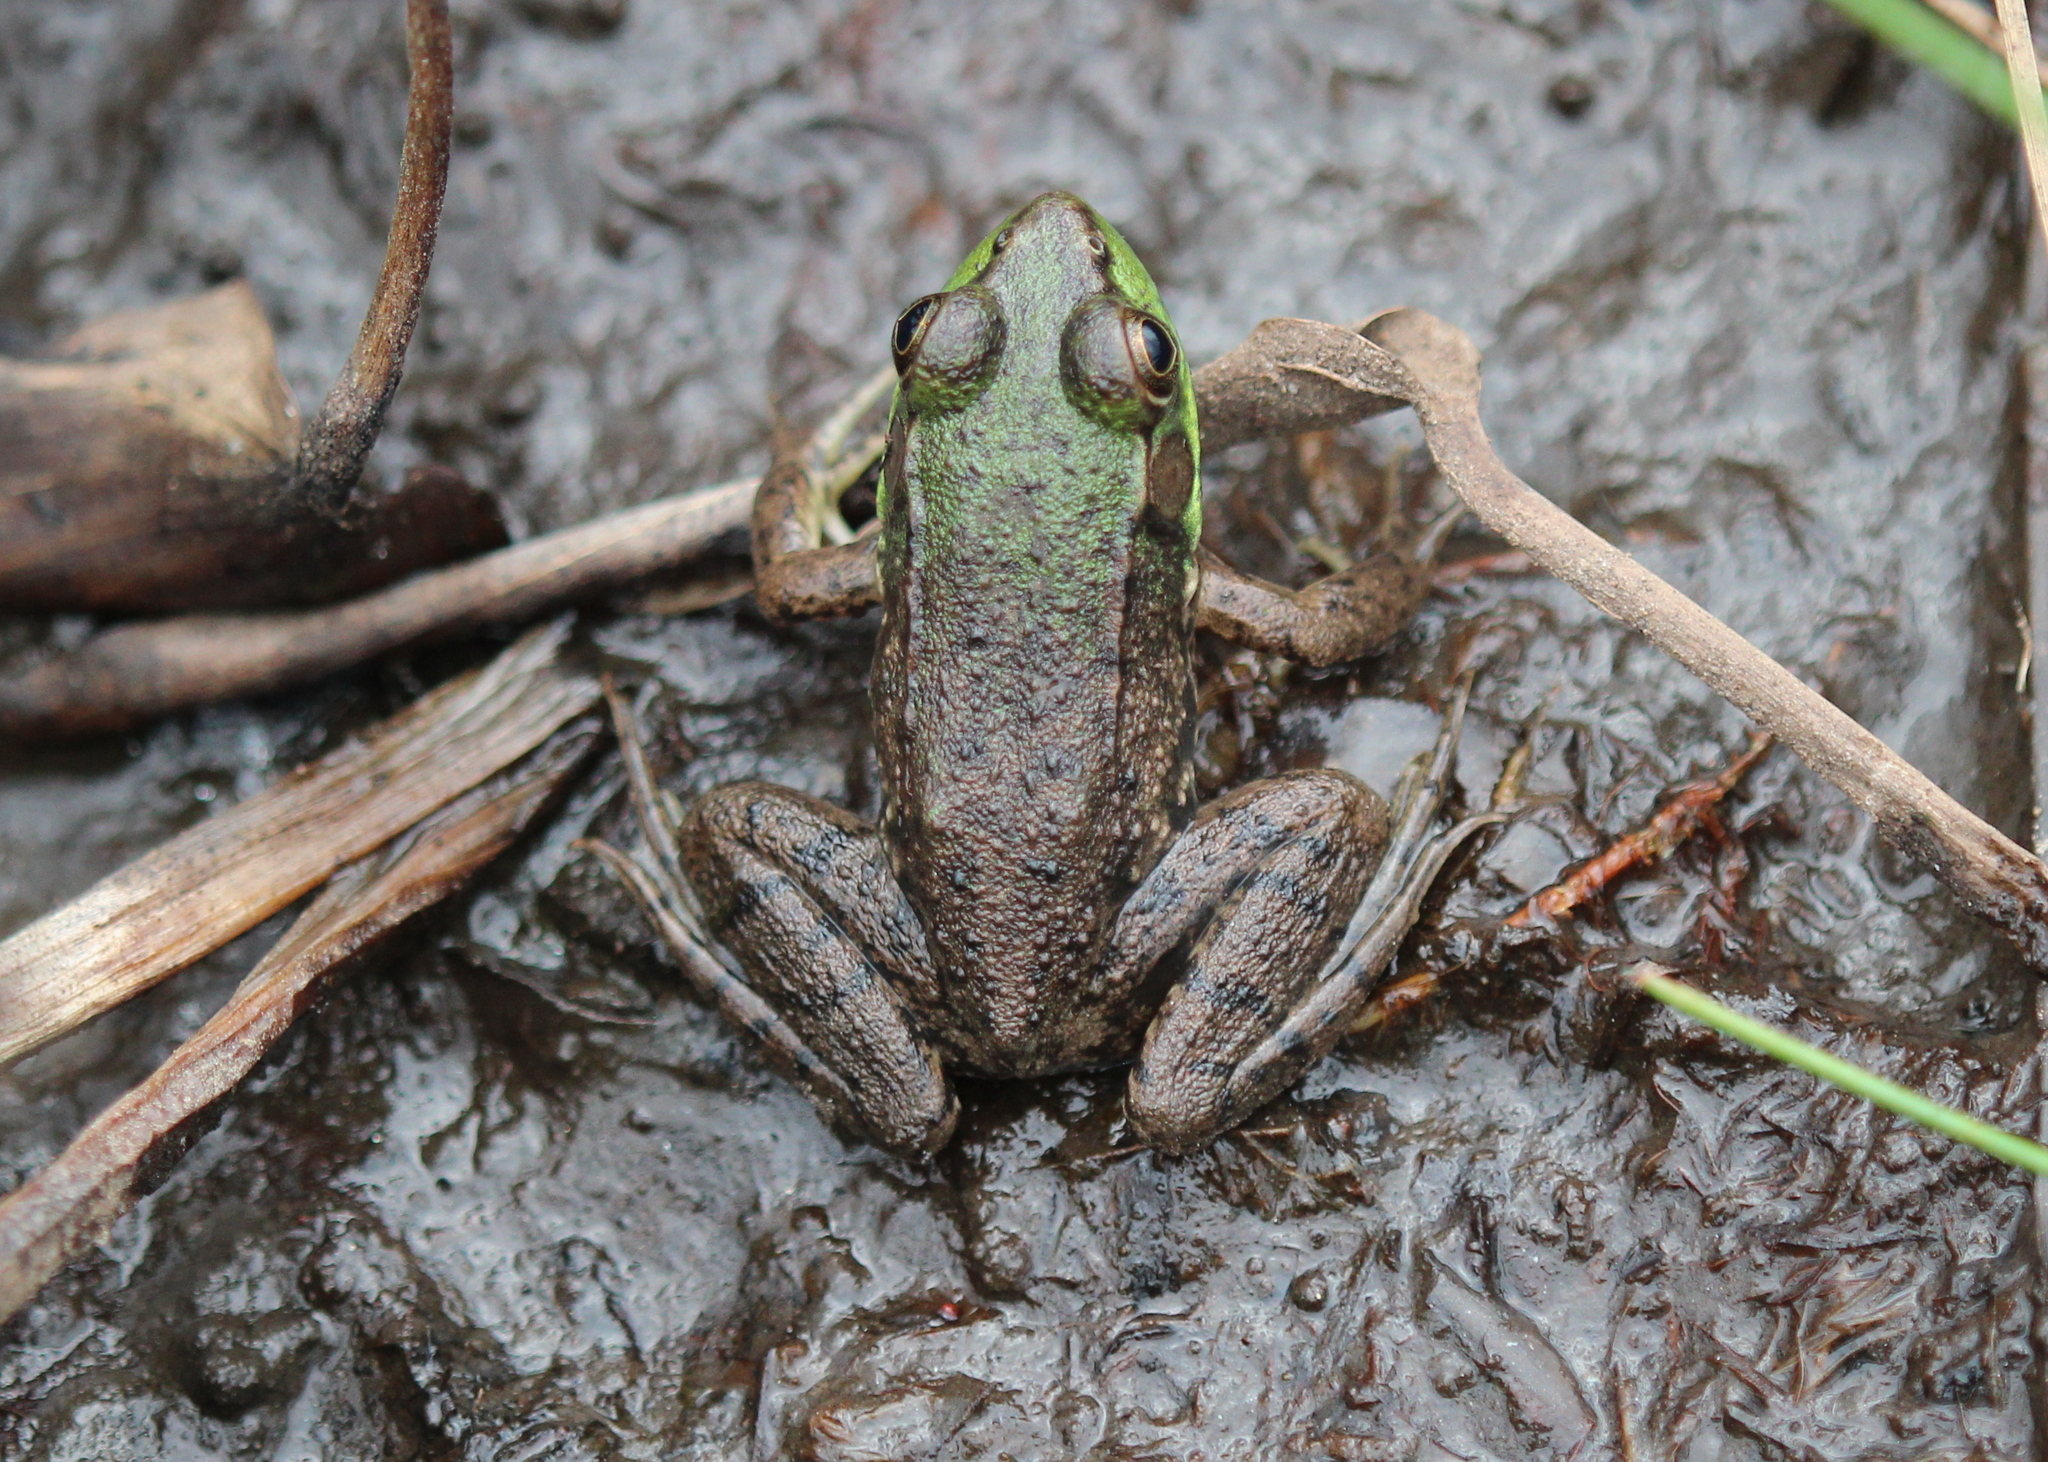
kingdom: Animalia
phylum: Chordata
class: Amphibia
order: Anura
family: Ranidae
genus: Lithobates
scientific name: Lithobates clamitans
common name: Green frog
